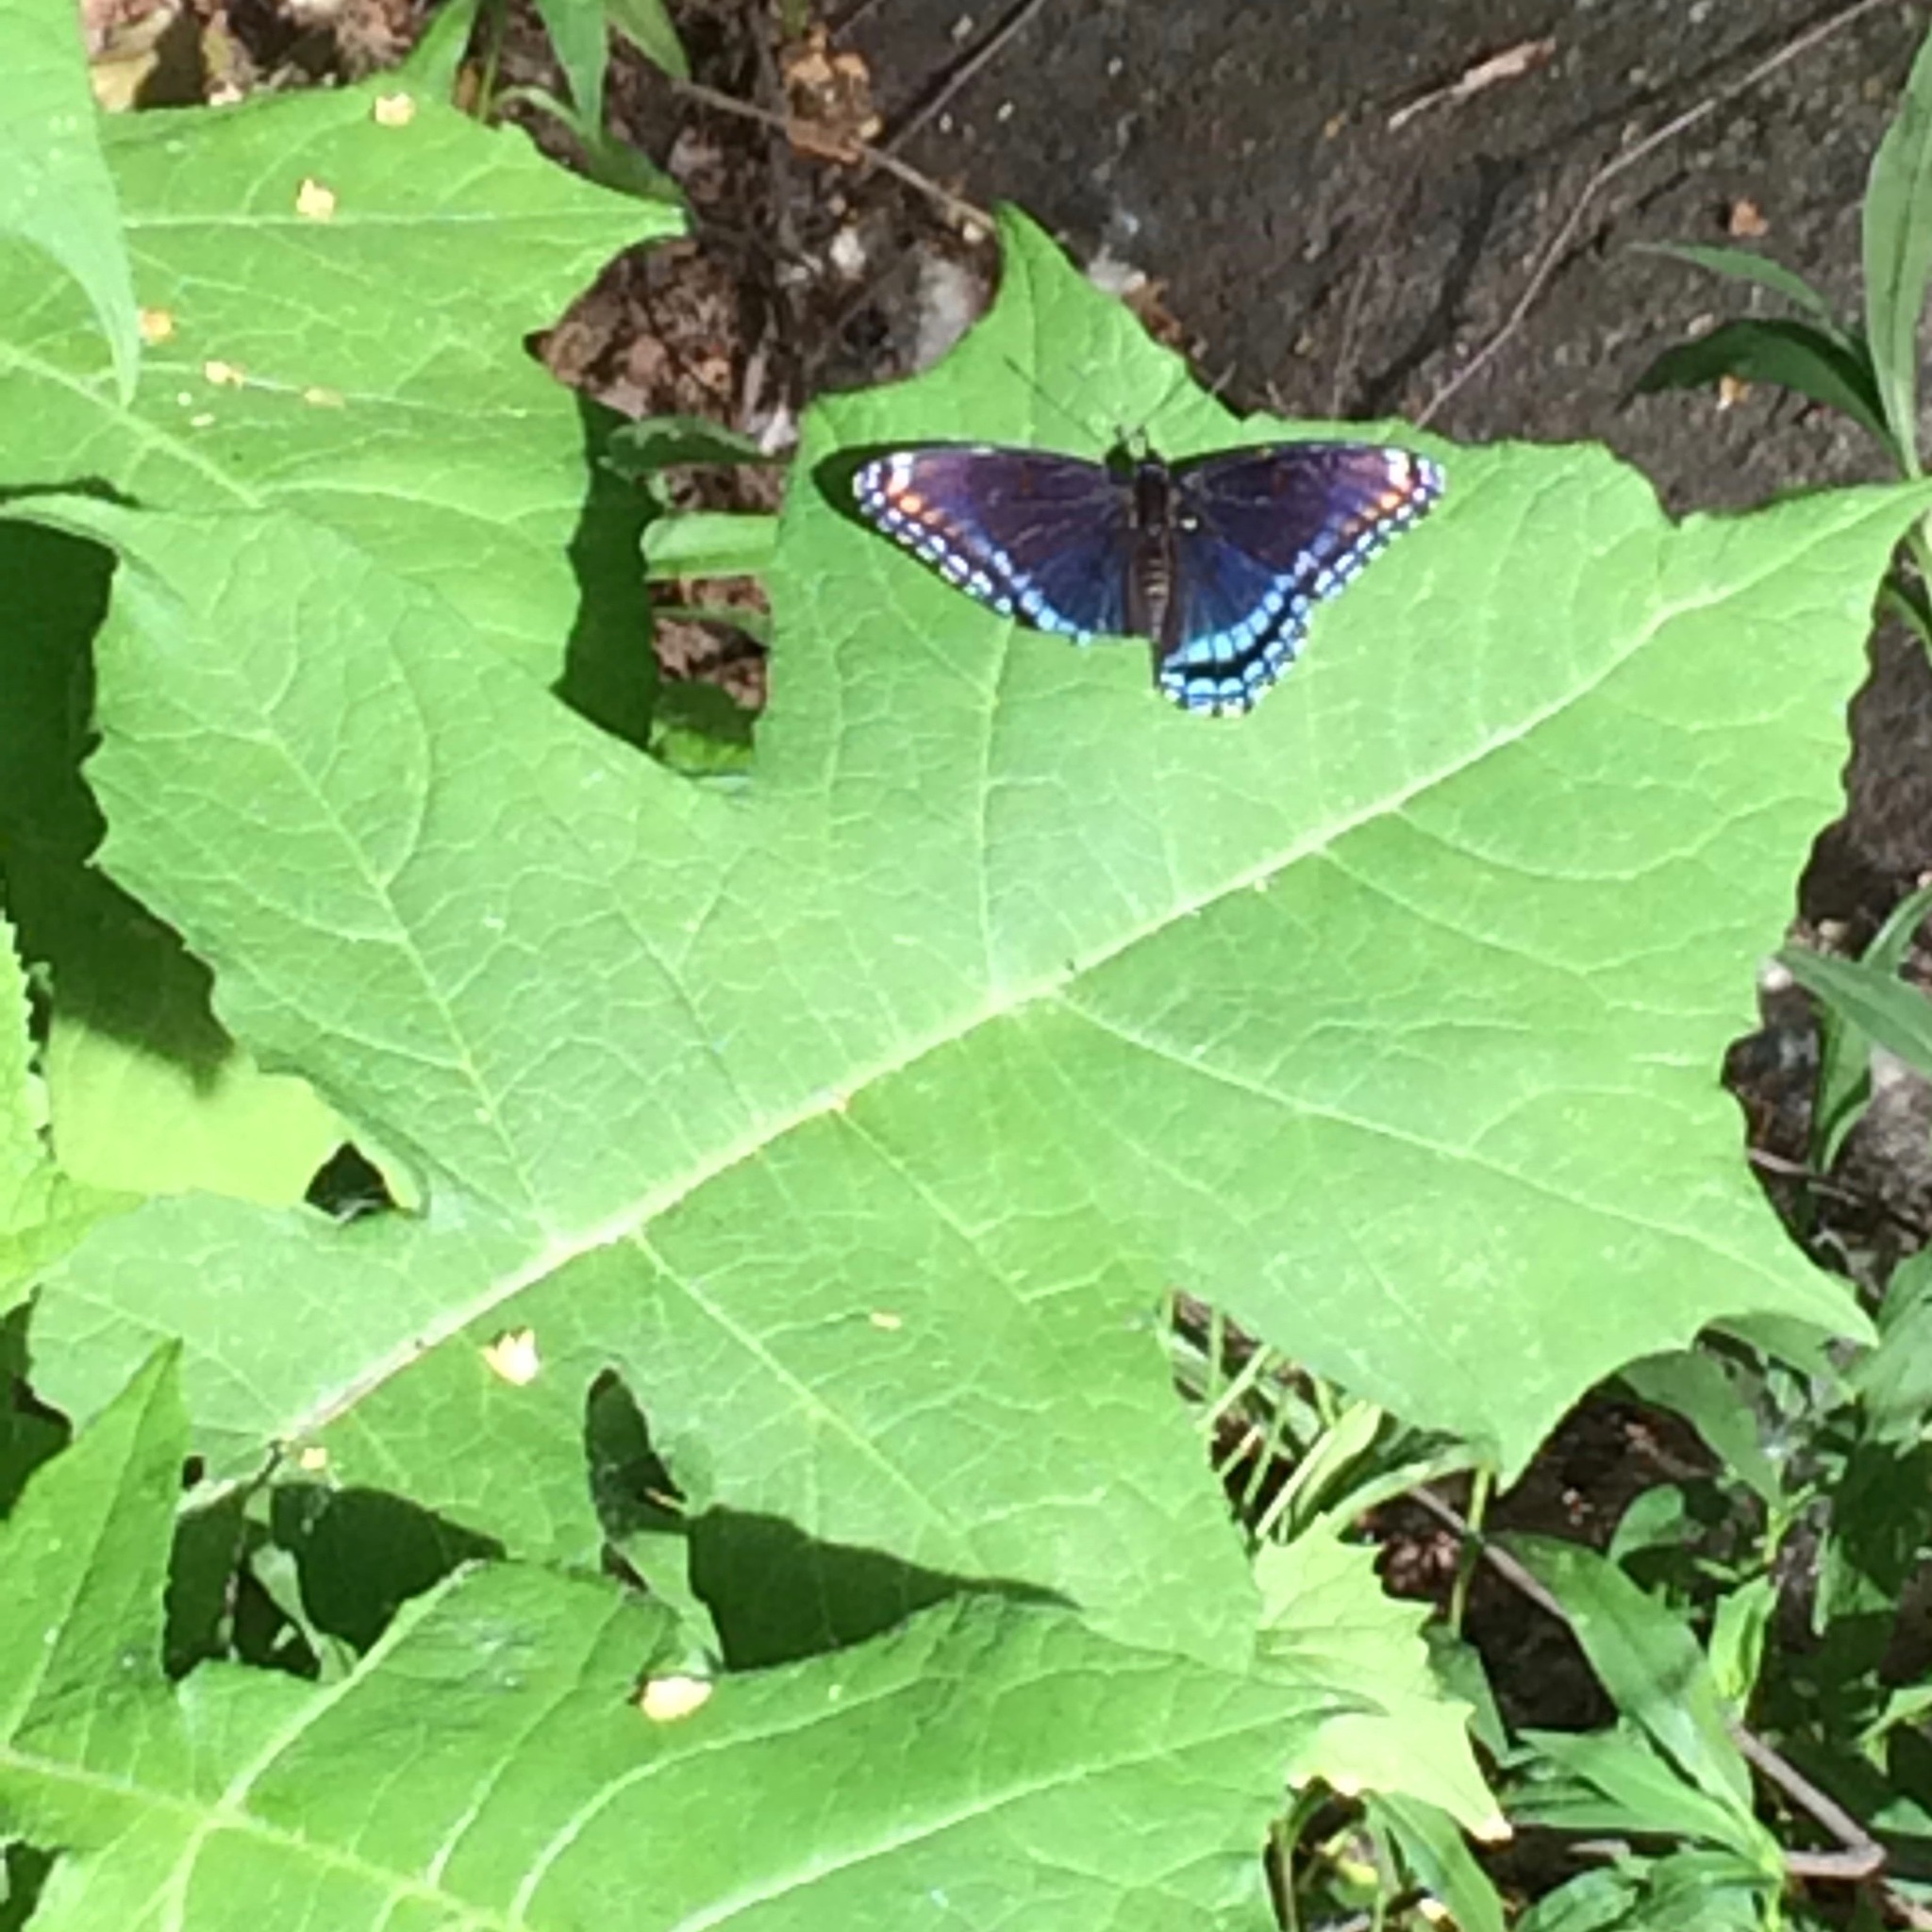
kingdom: Animalia
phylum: Arthropoda
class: Insecta
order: Lepidoptera
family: Nymphalidae
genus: Limenitis
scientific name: Limenitis arthemis
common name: Red-spotted admiral
